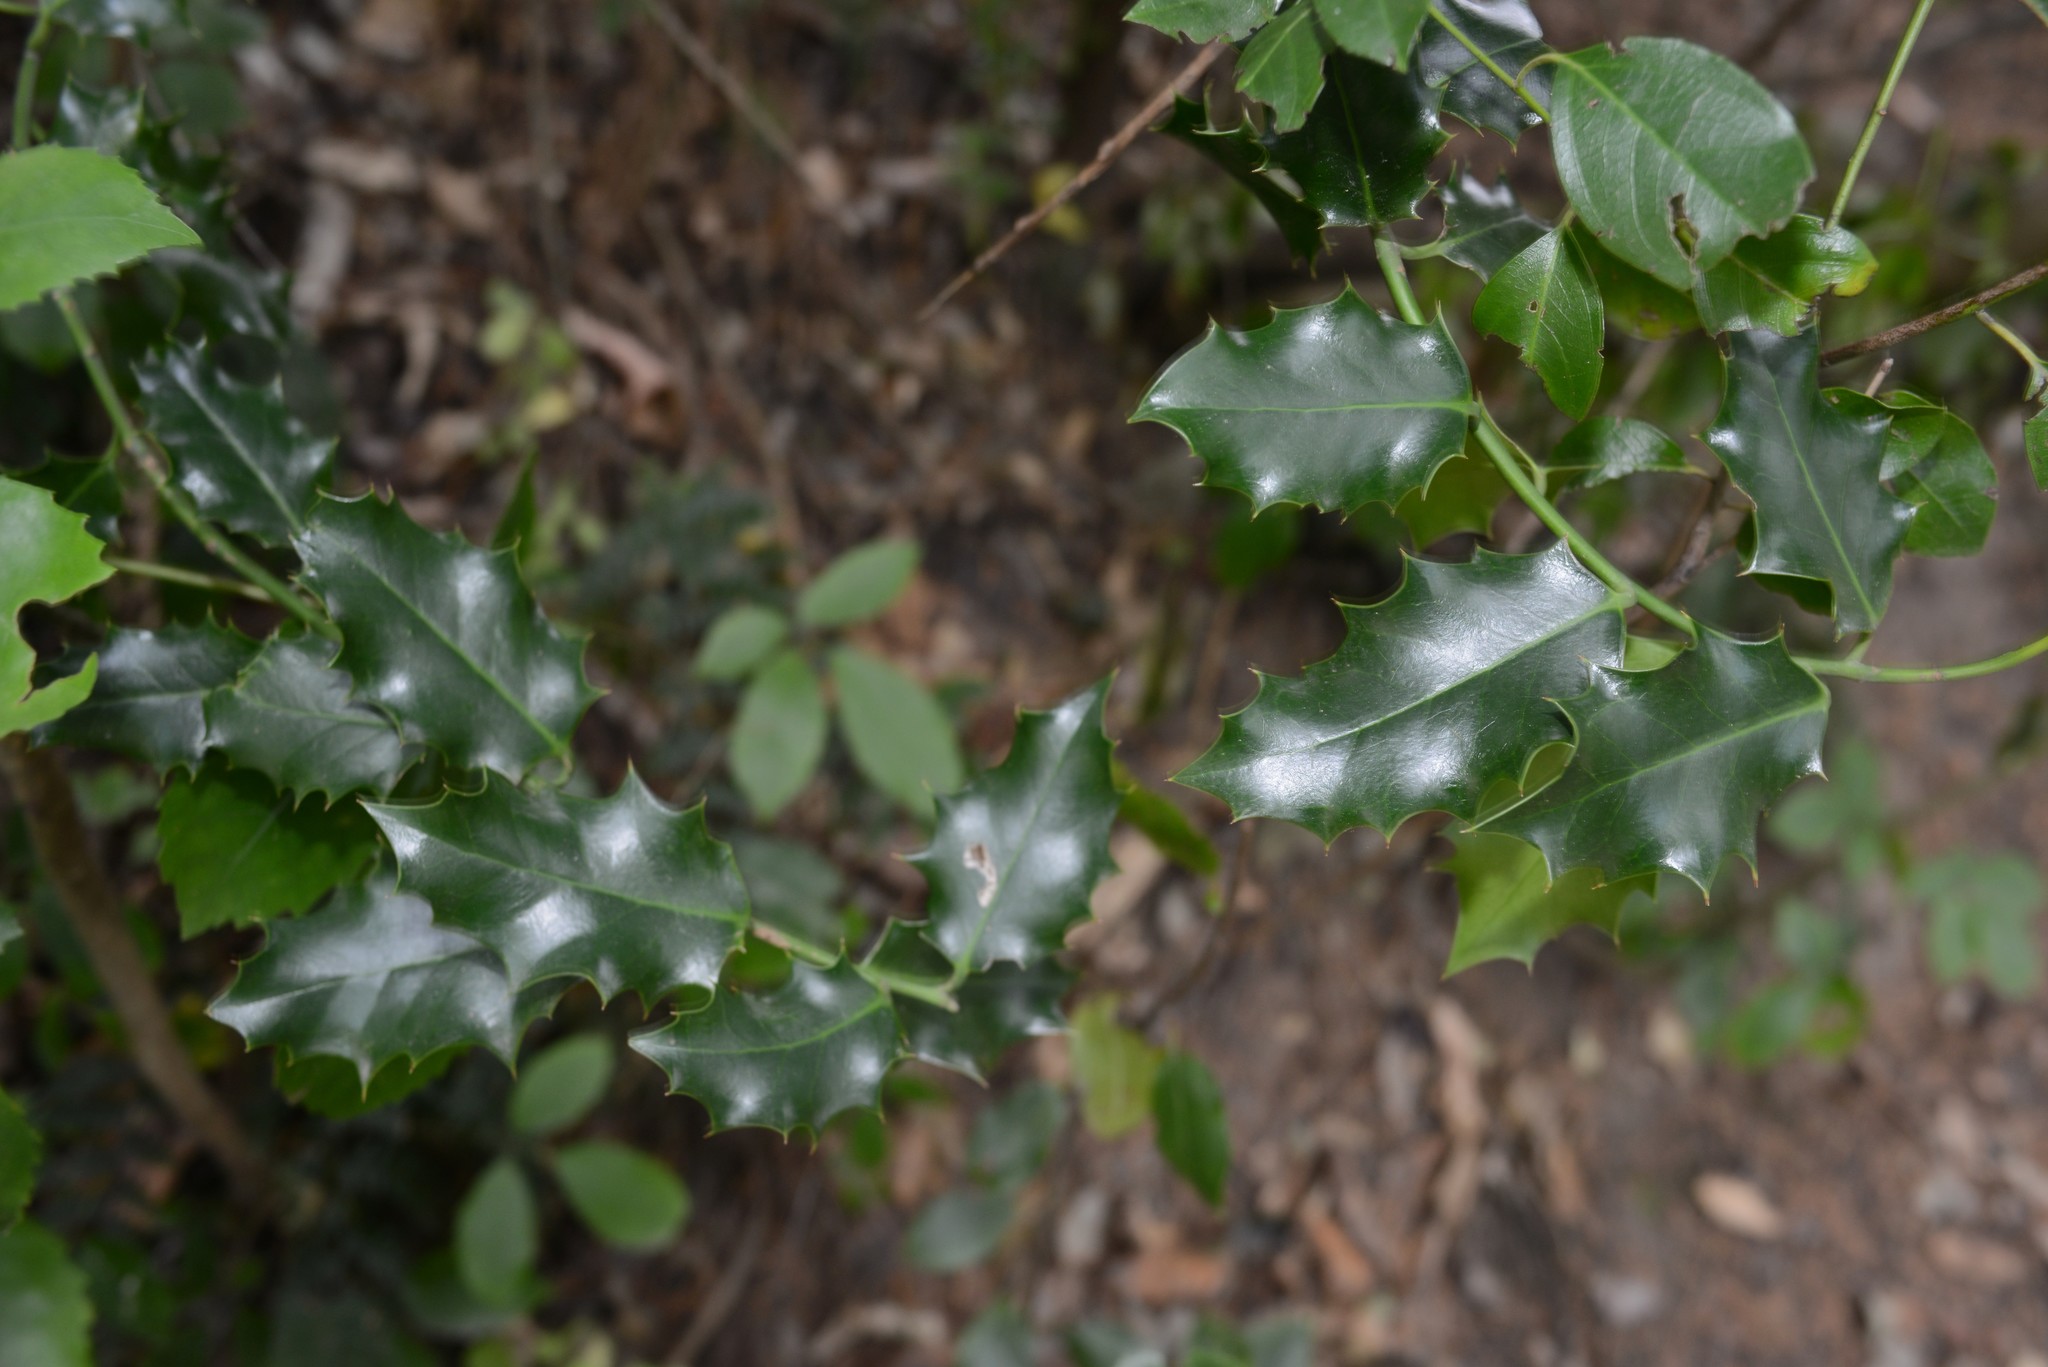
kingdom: Plantae
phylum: Tracheophyta
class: Magnoliopsida
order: Aquifoliales
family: Aquifoliaceae
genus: Ilex
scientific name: Ilex aquifolium
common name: English holly
